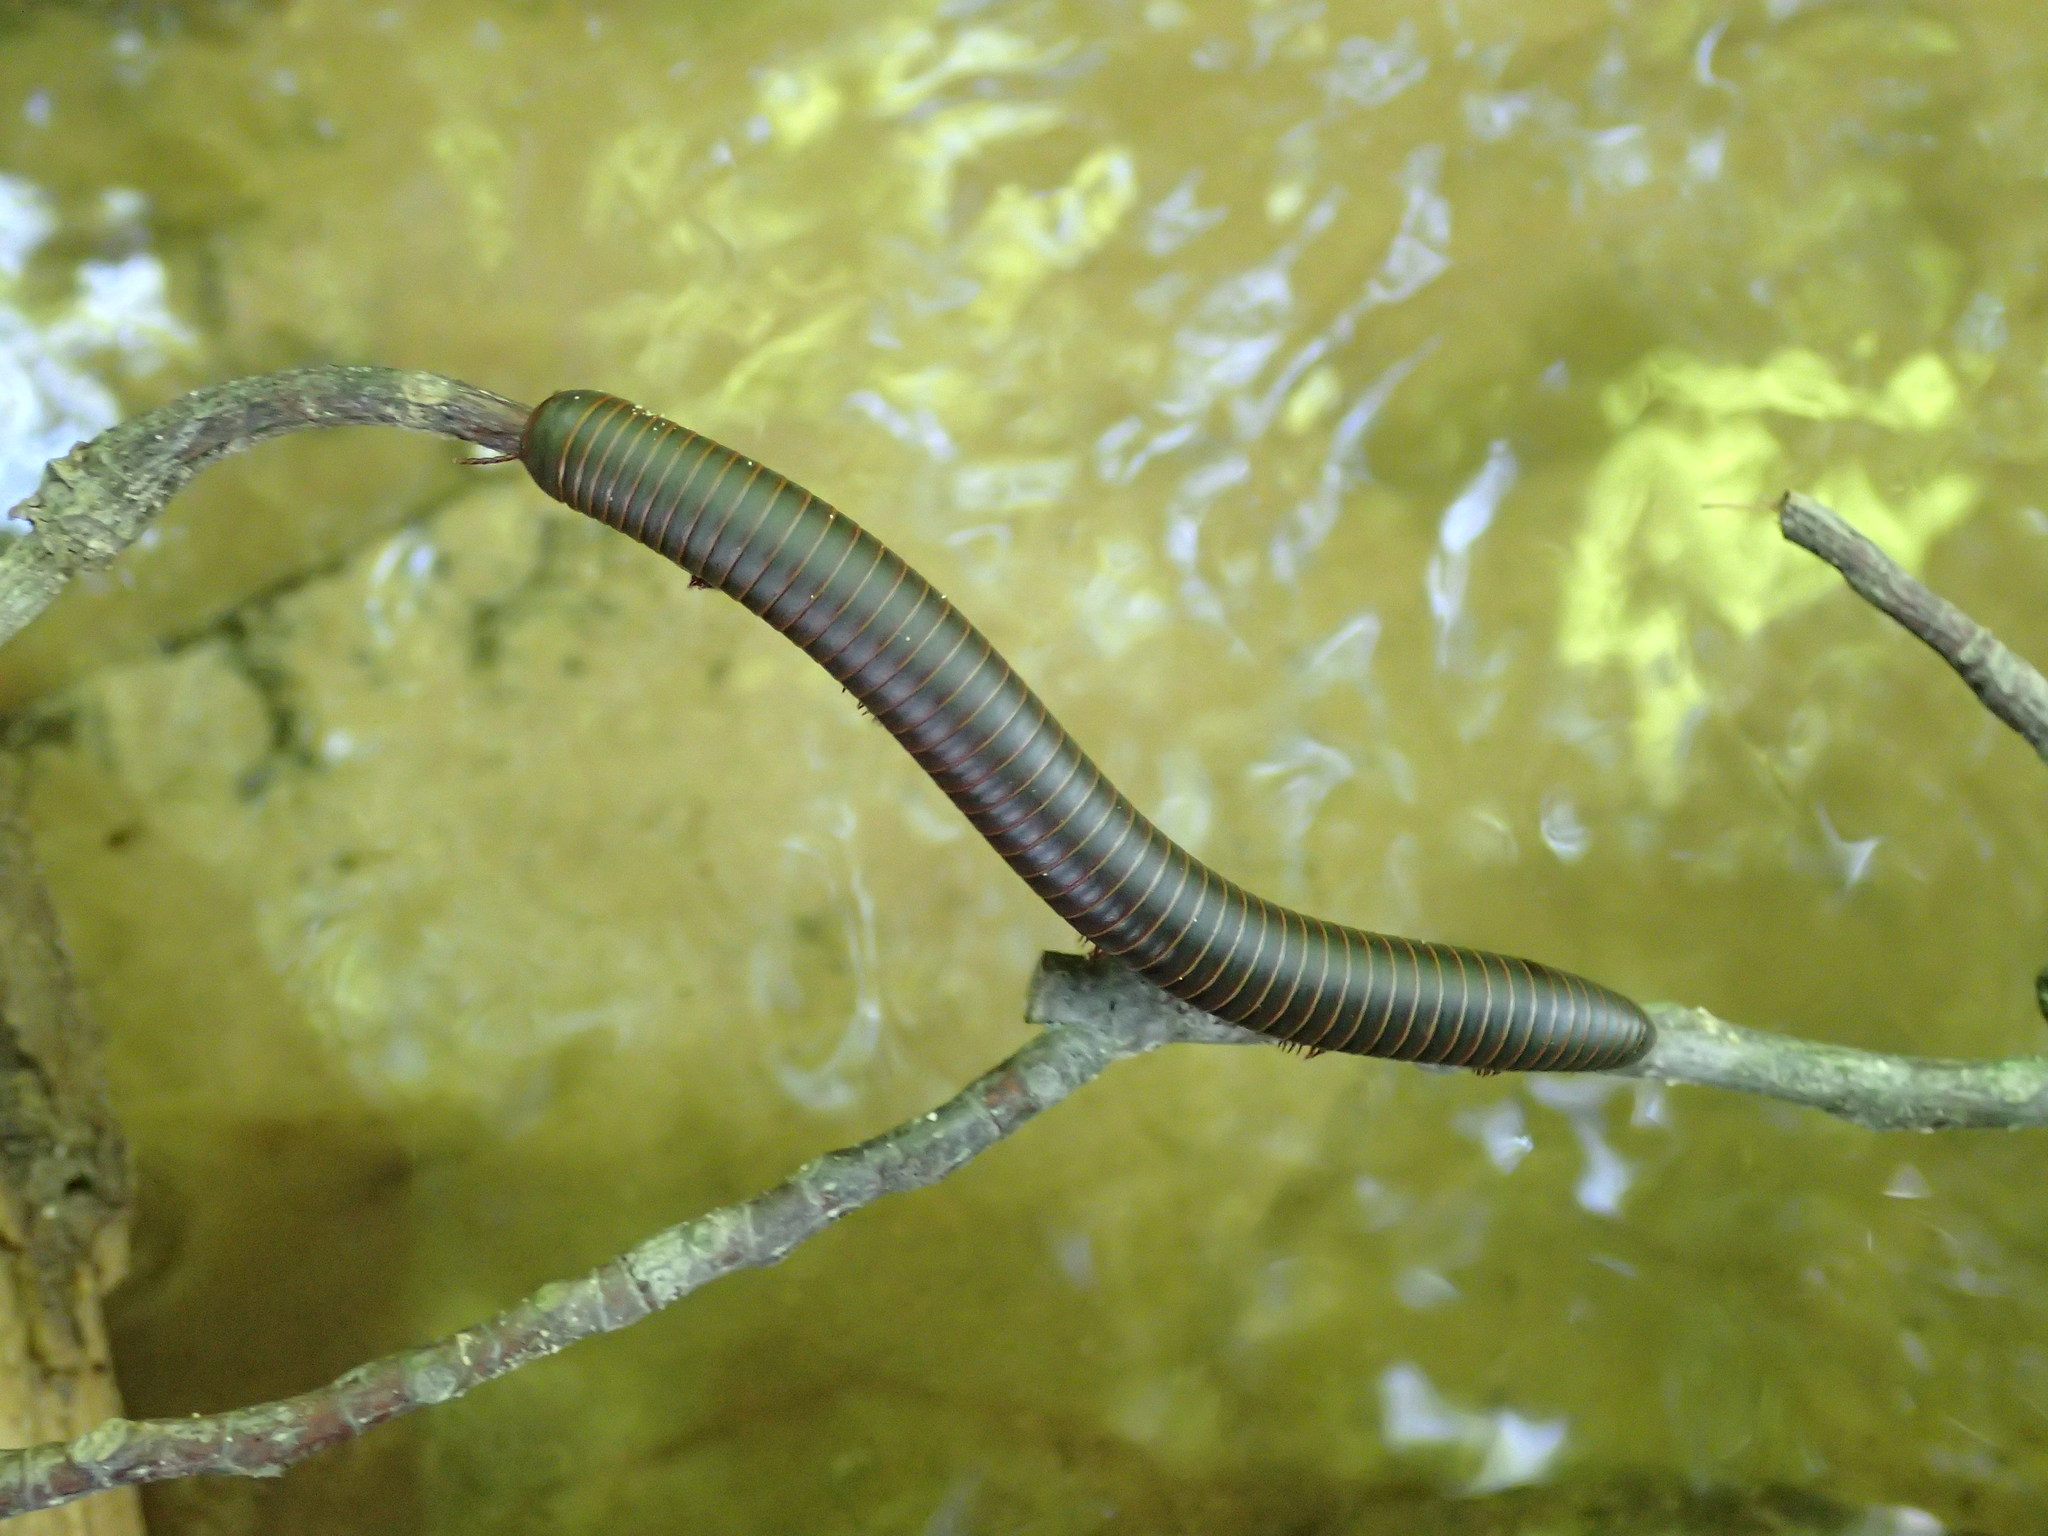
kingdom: Animalia
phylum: Arthropoda
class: Diplopoda
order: Spirobolida
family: Spirobolidae
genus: Narceus
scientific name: Narceus
